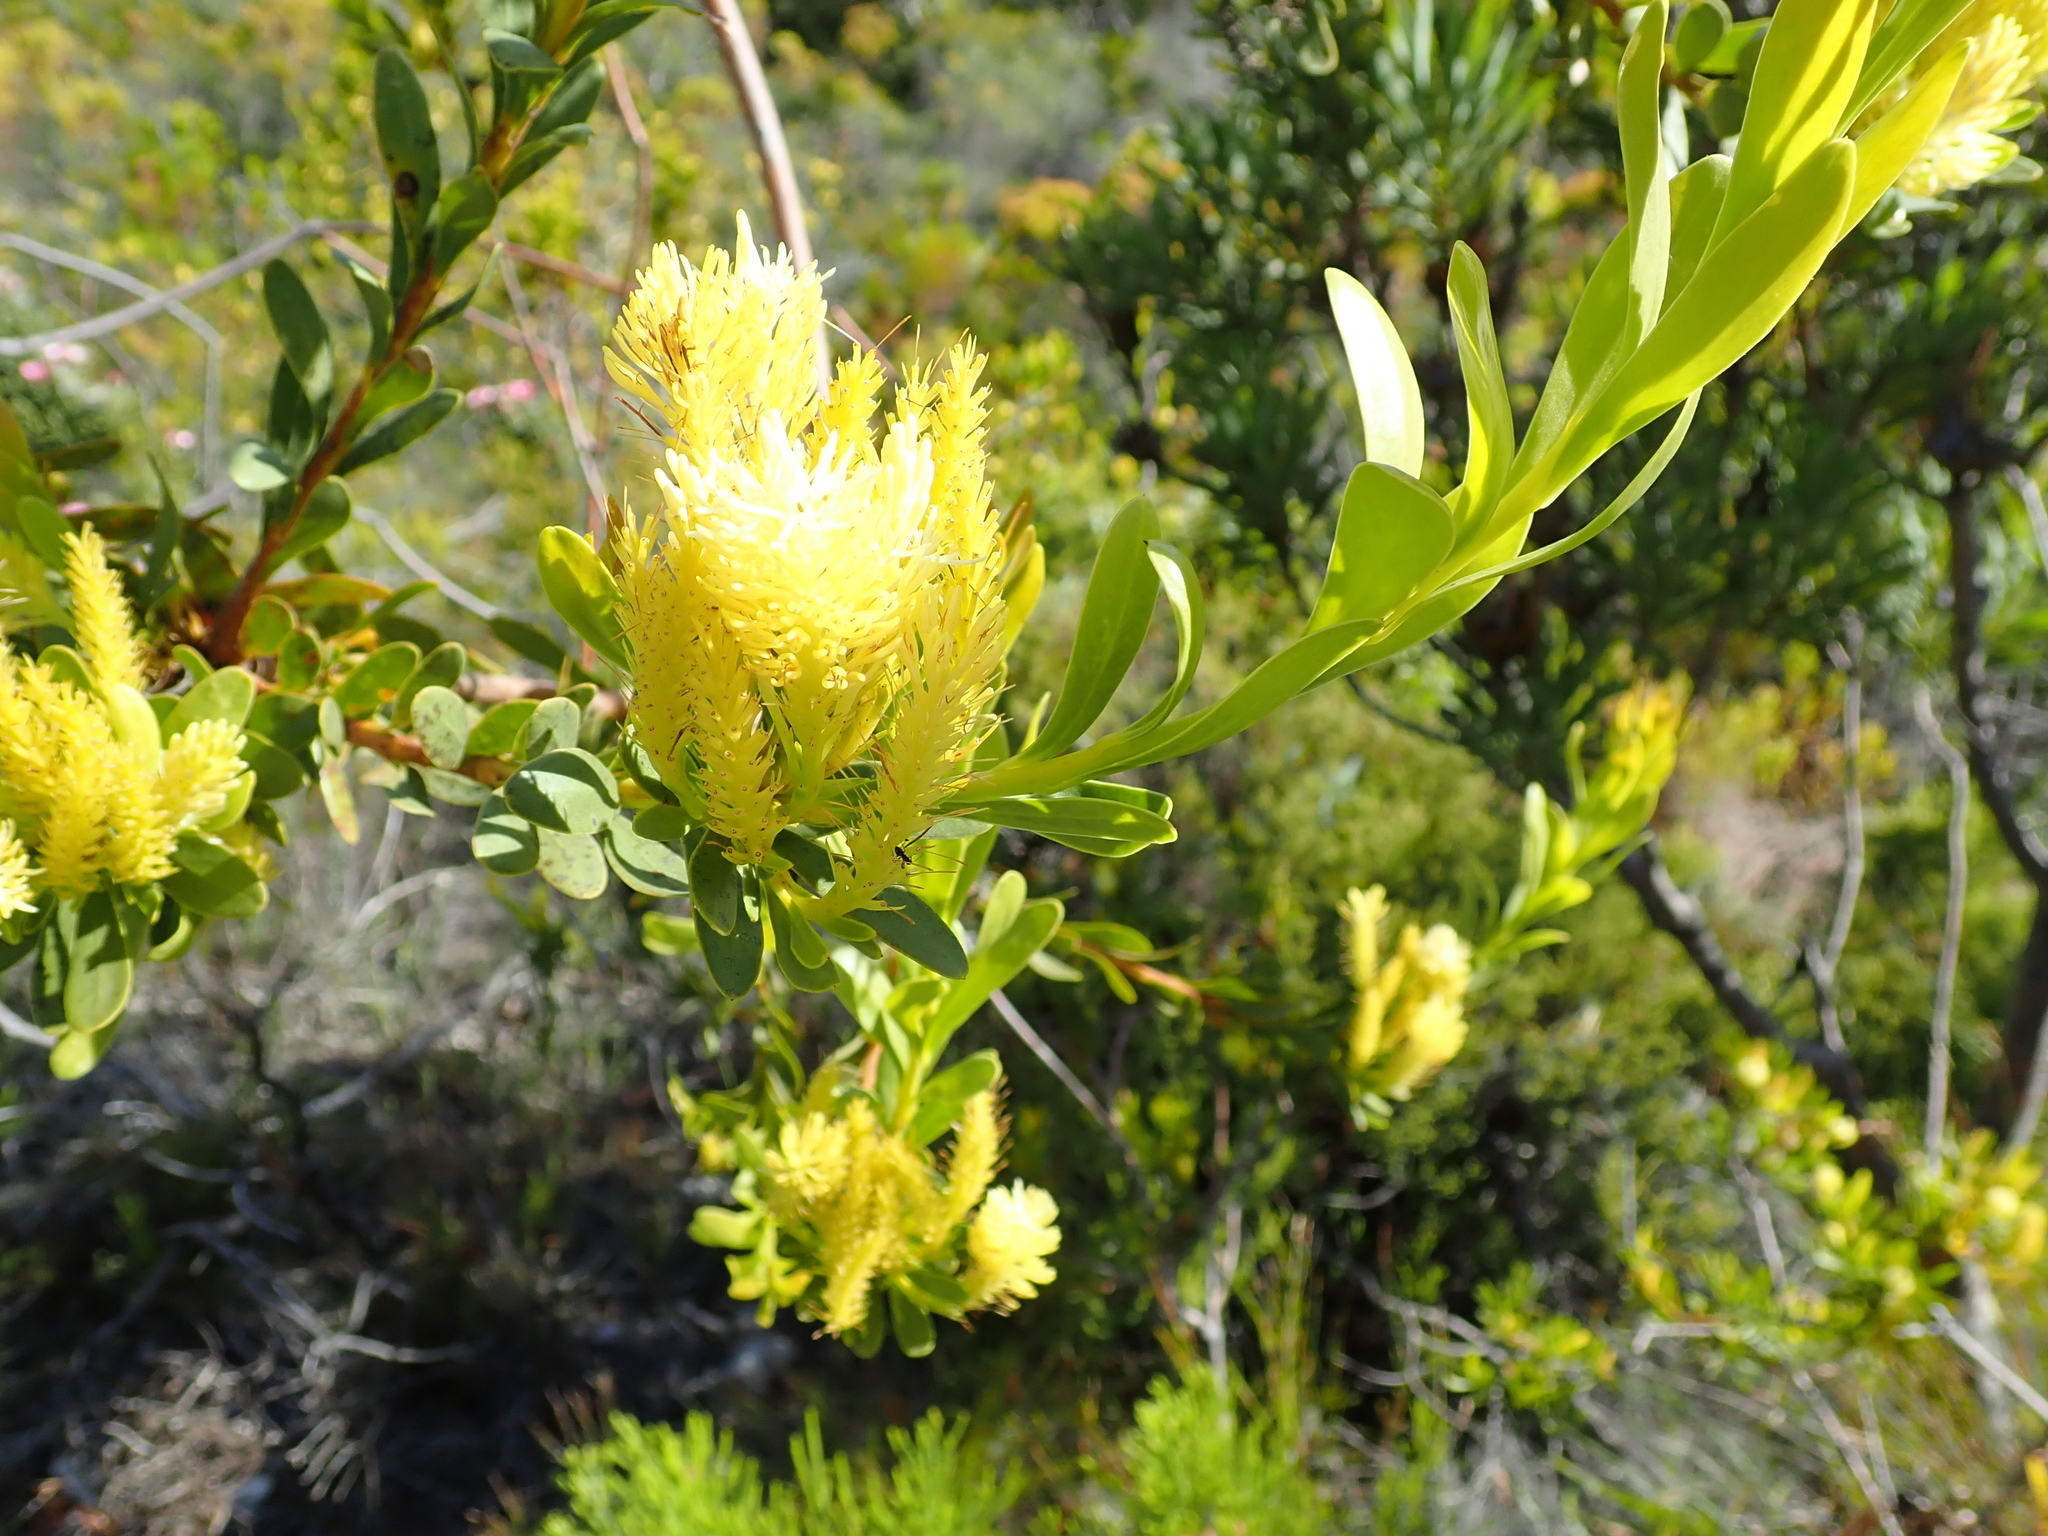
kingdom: Plantae
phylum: Tracheophyta
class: Magnoliopsida
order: Proteales
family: Proteaceae
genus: Aulax
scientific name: Aulax umbellata
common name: Broad-leaf featherbush
